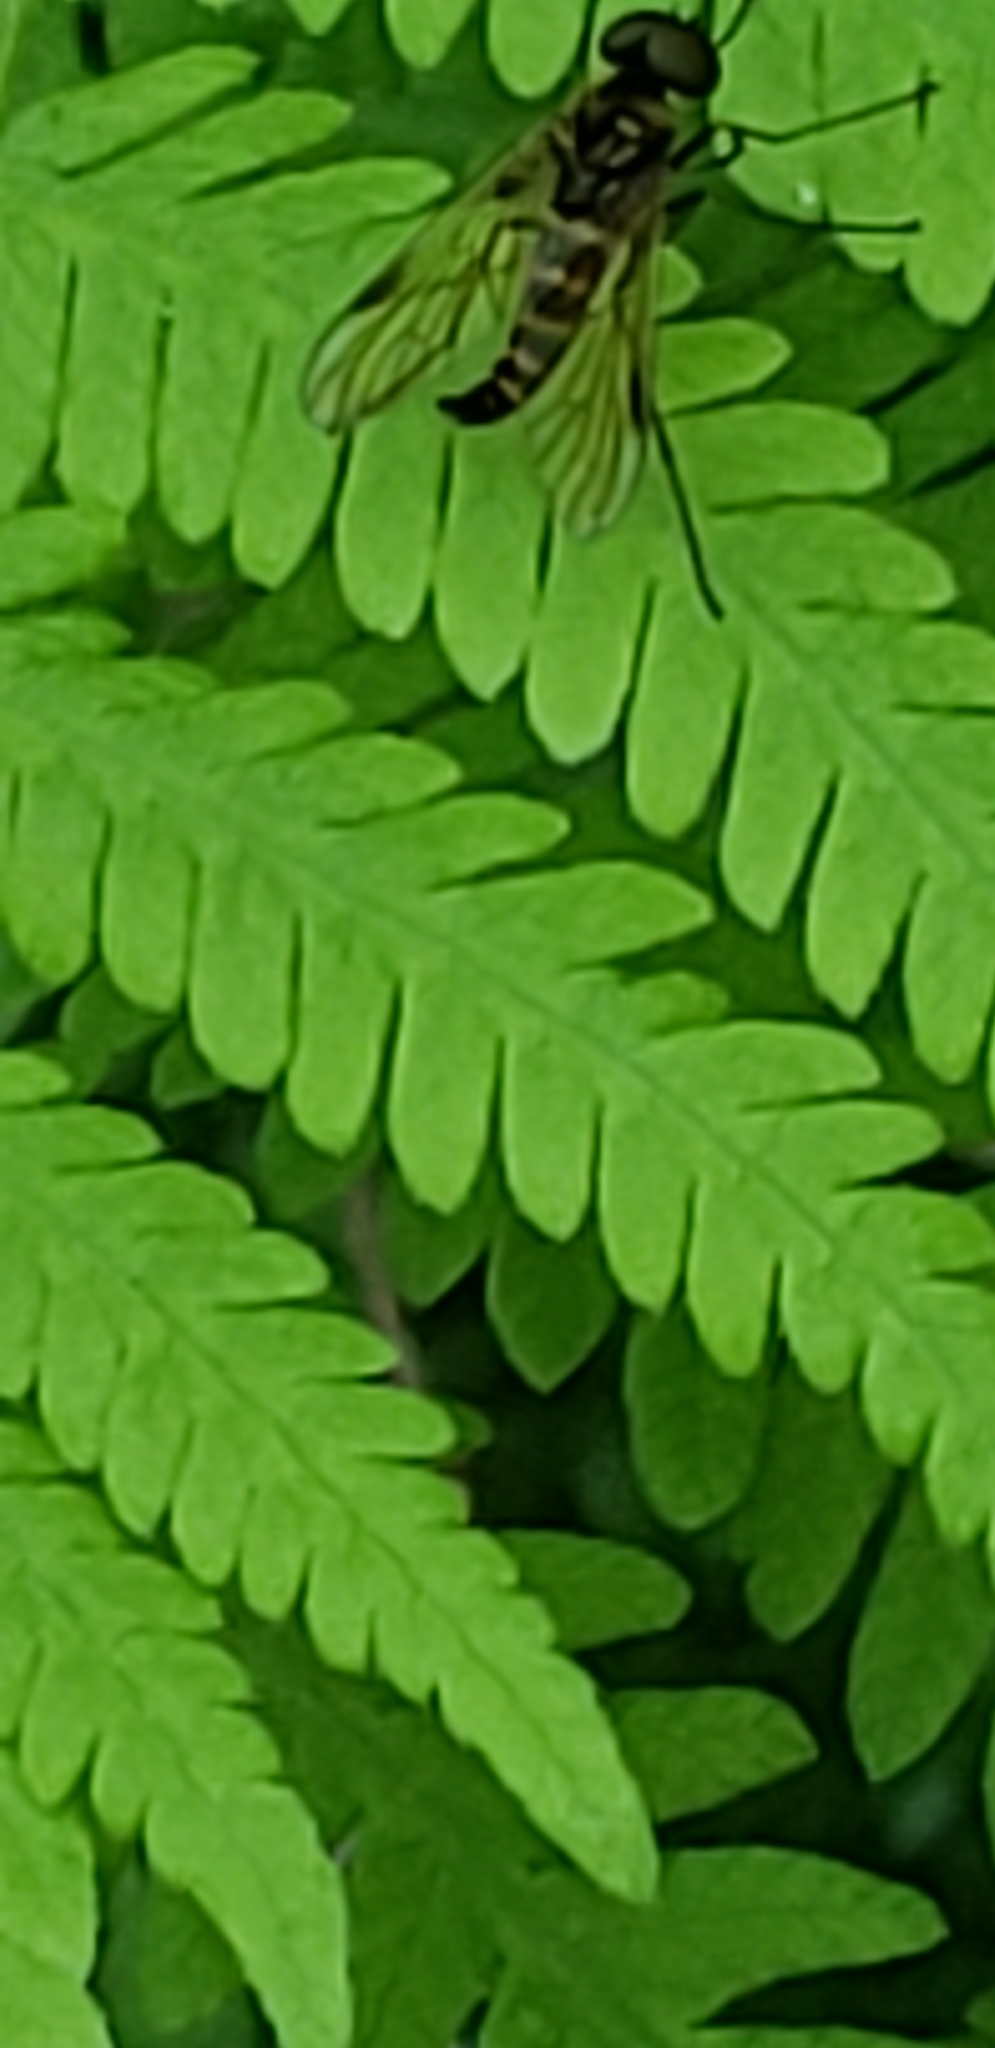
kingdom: Animalia
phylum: Arthropoda
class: Insecta
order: Diptera
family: Rhagionidae
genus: Chrysopilus
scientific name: Chrysopilus fasciatus
